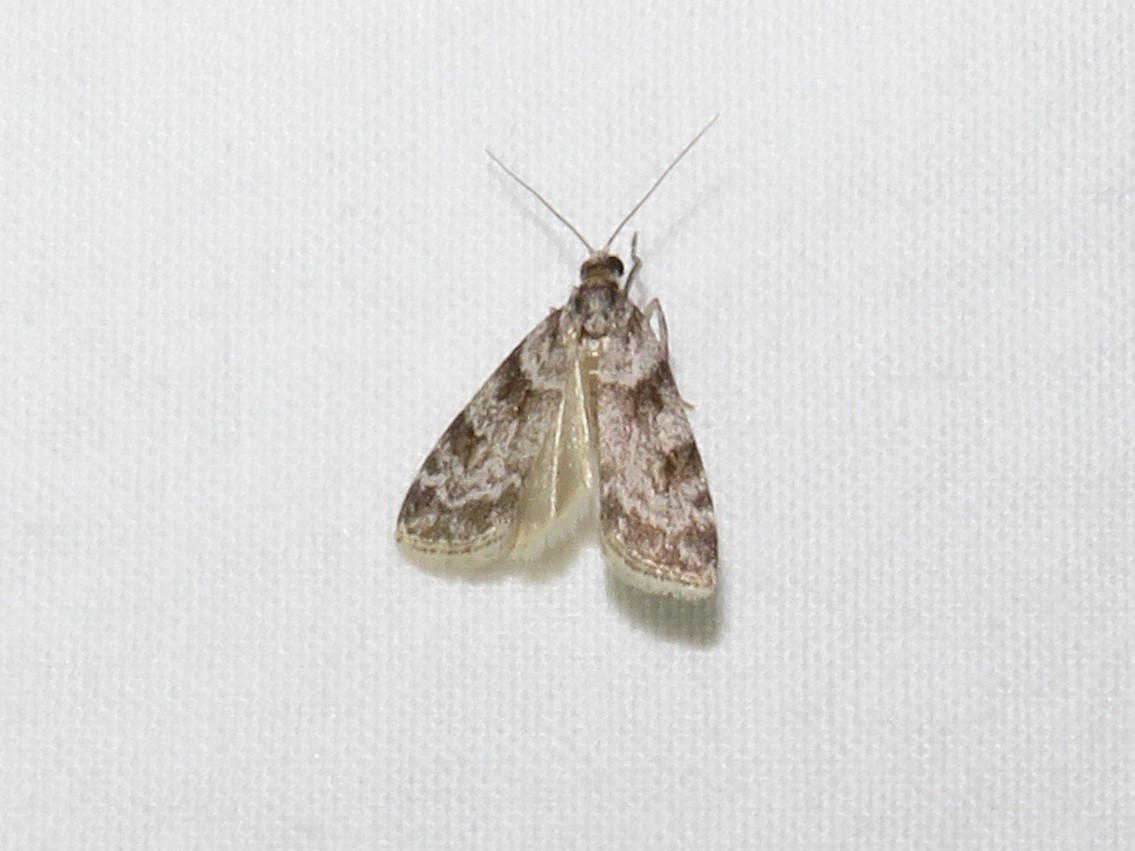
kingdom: Animalia
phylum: Arthropoda
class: Insecta
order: Lepidoptera
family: Crambidae
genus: Scoparia
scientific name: Scoparia biplagialis
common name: Double-striped scoparia moth
